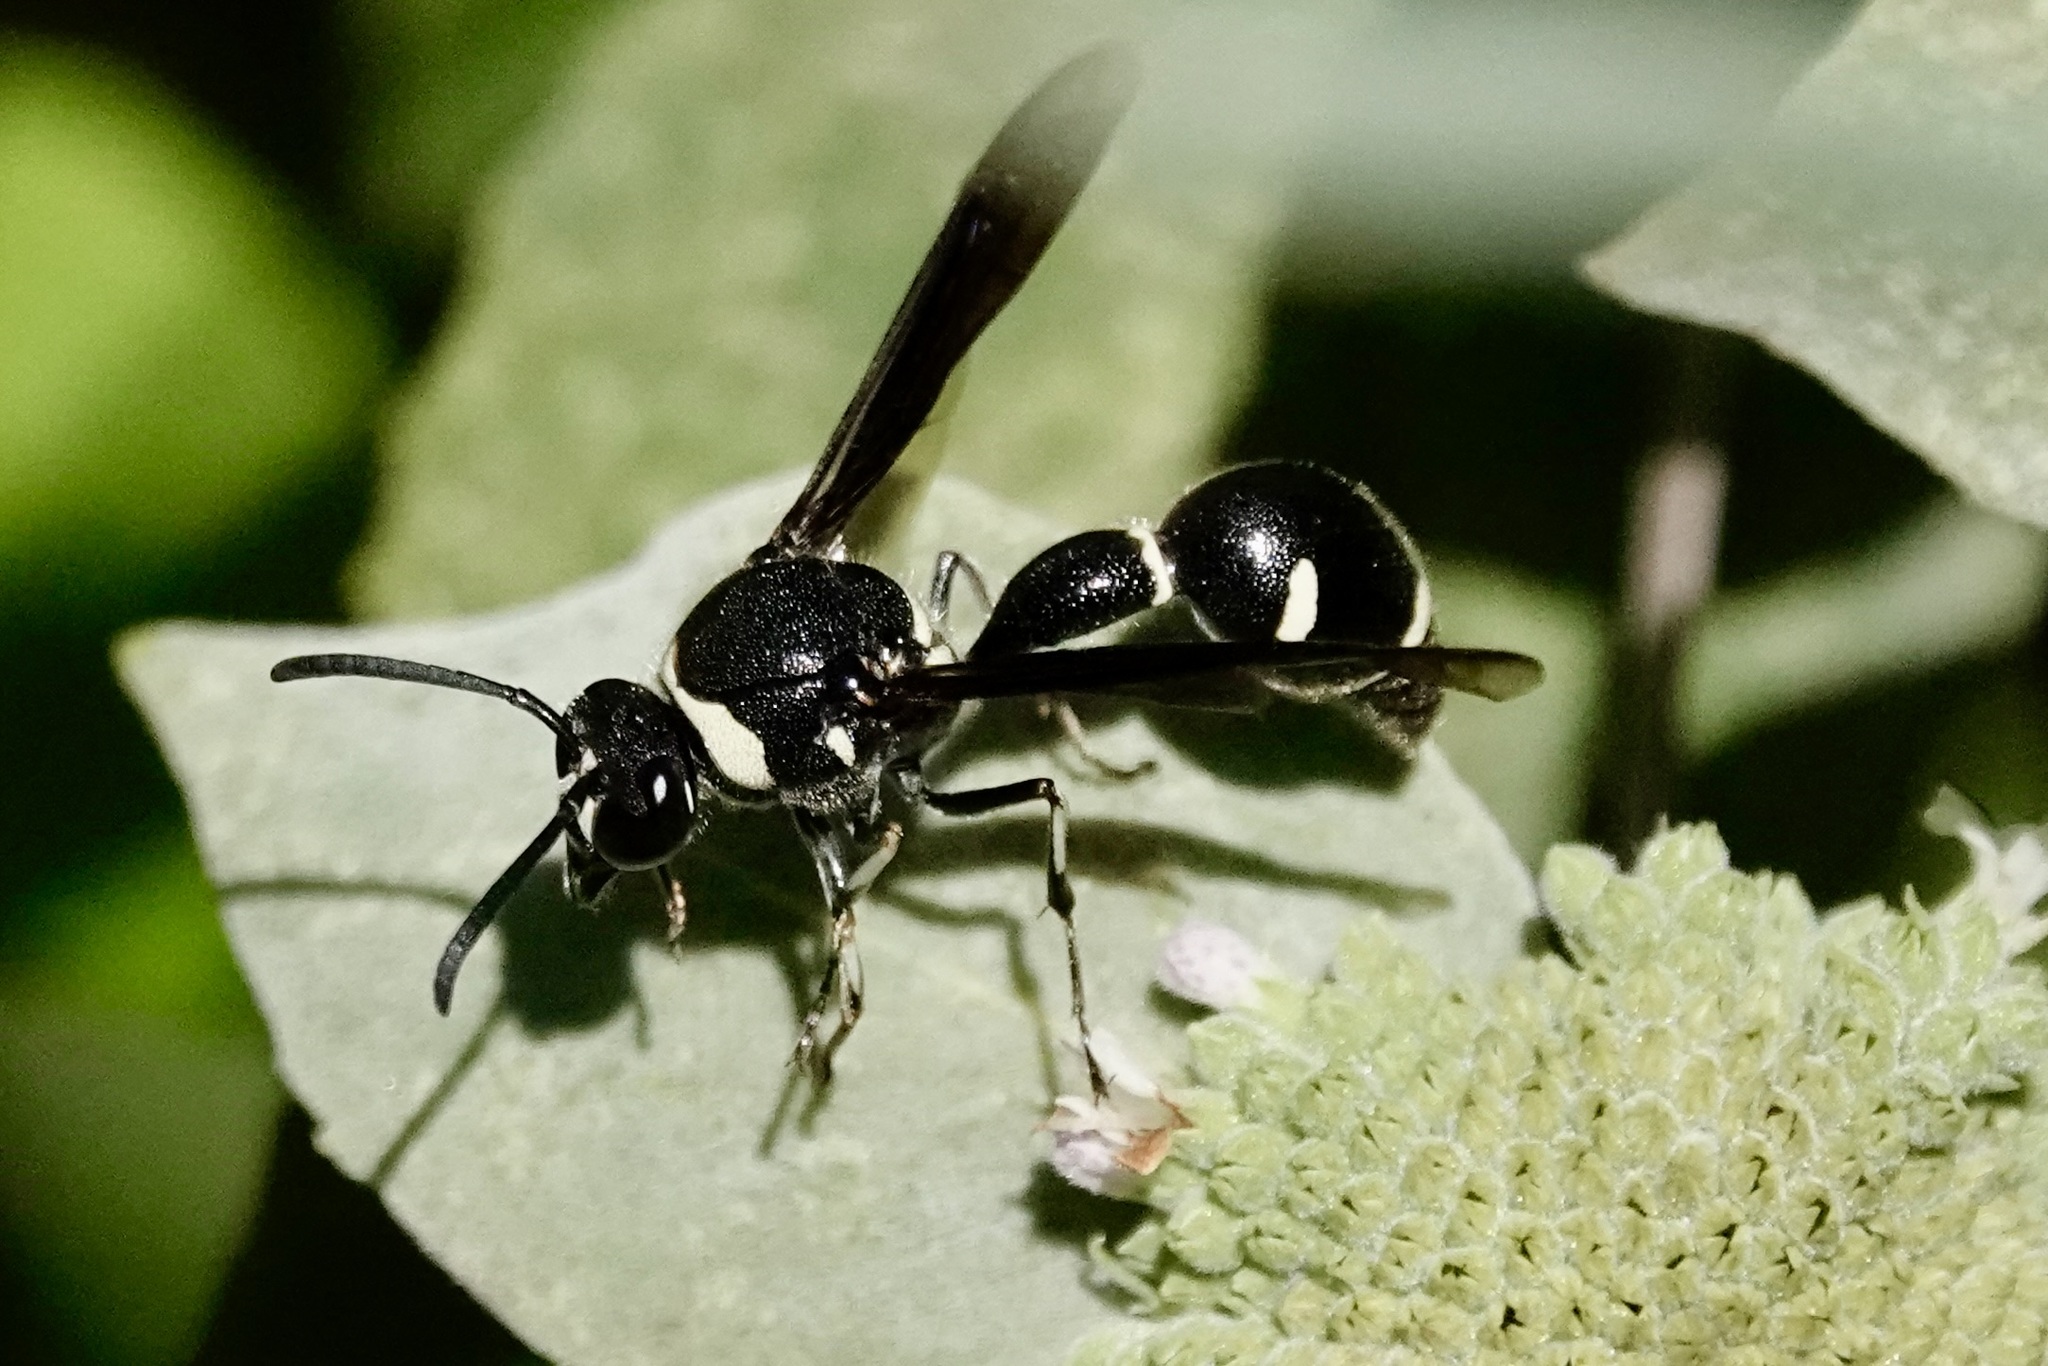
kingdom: Animalia
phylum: Arthropoda
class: Insecta
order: Hymenoptera
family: Vespidae
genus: Eumenes
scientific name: Eumenes fraternus
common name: Fraternal potter wasp
